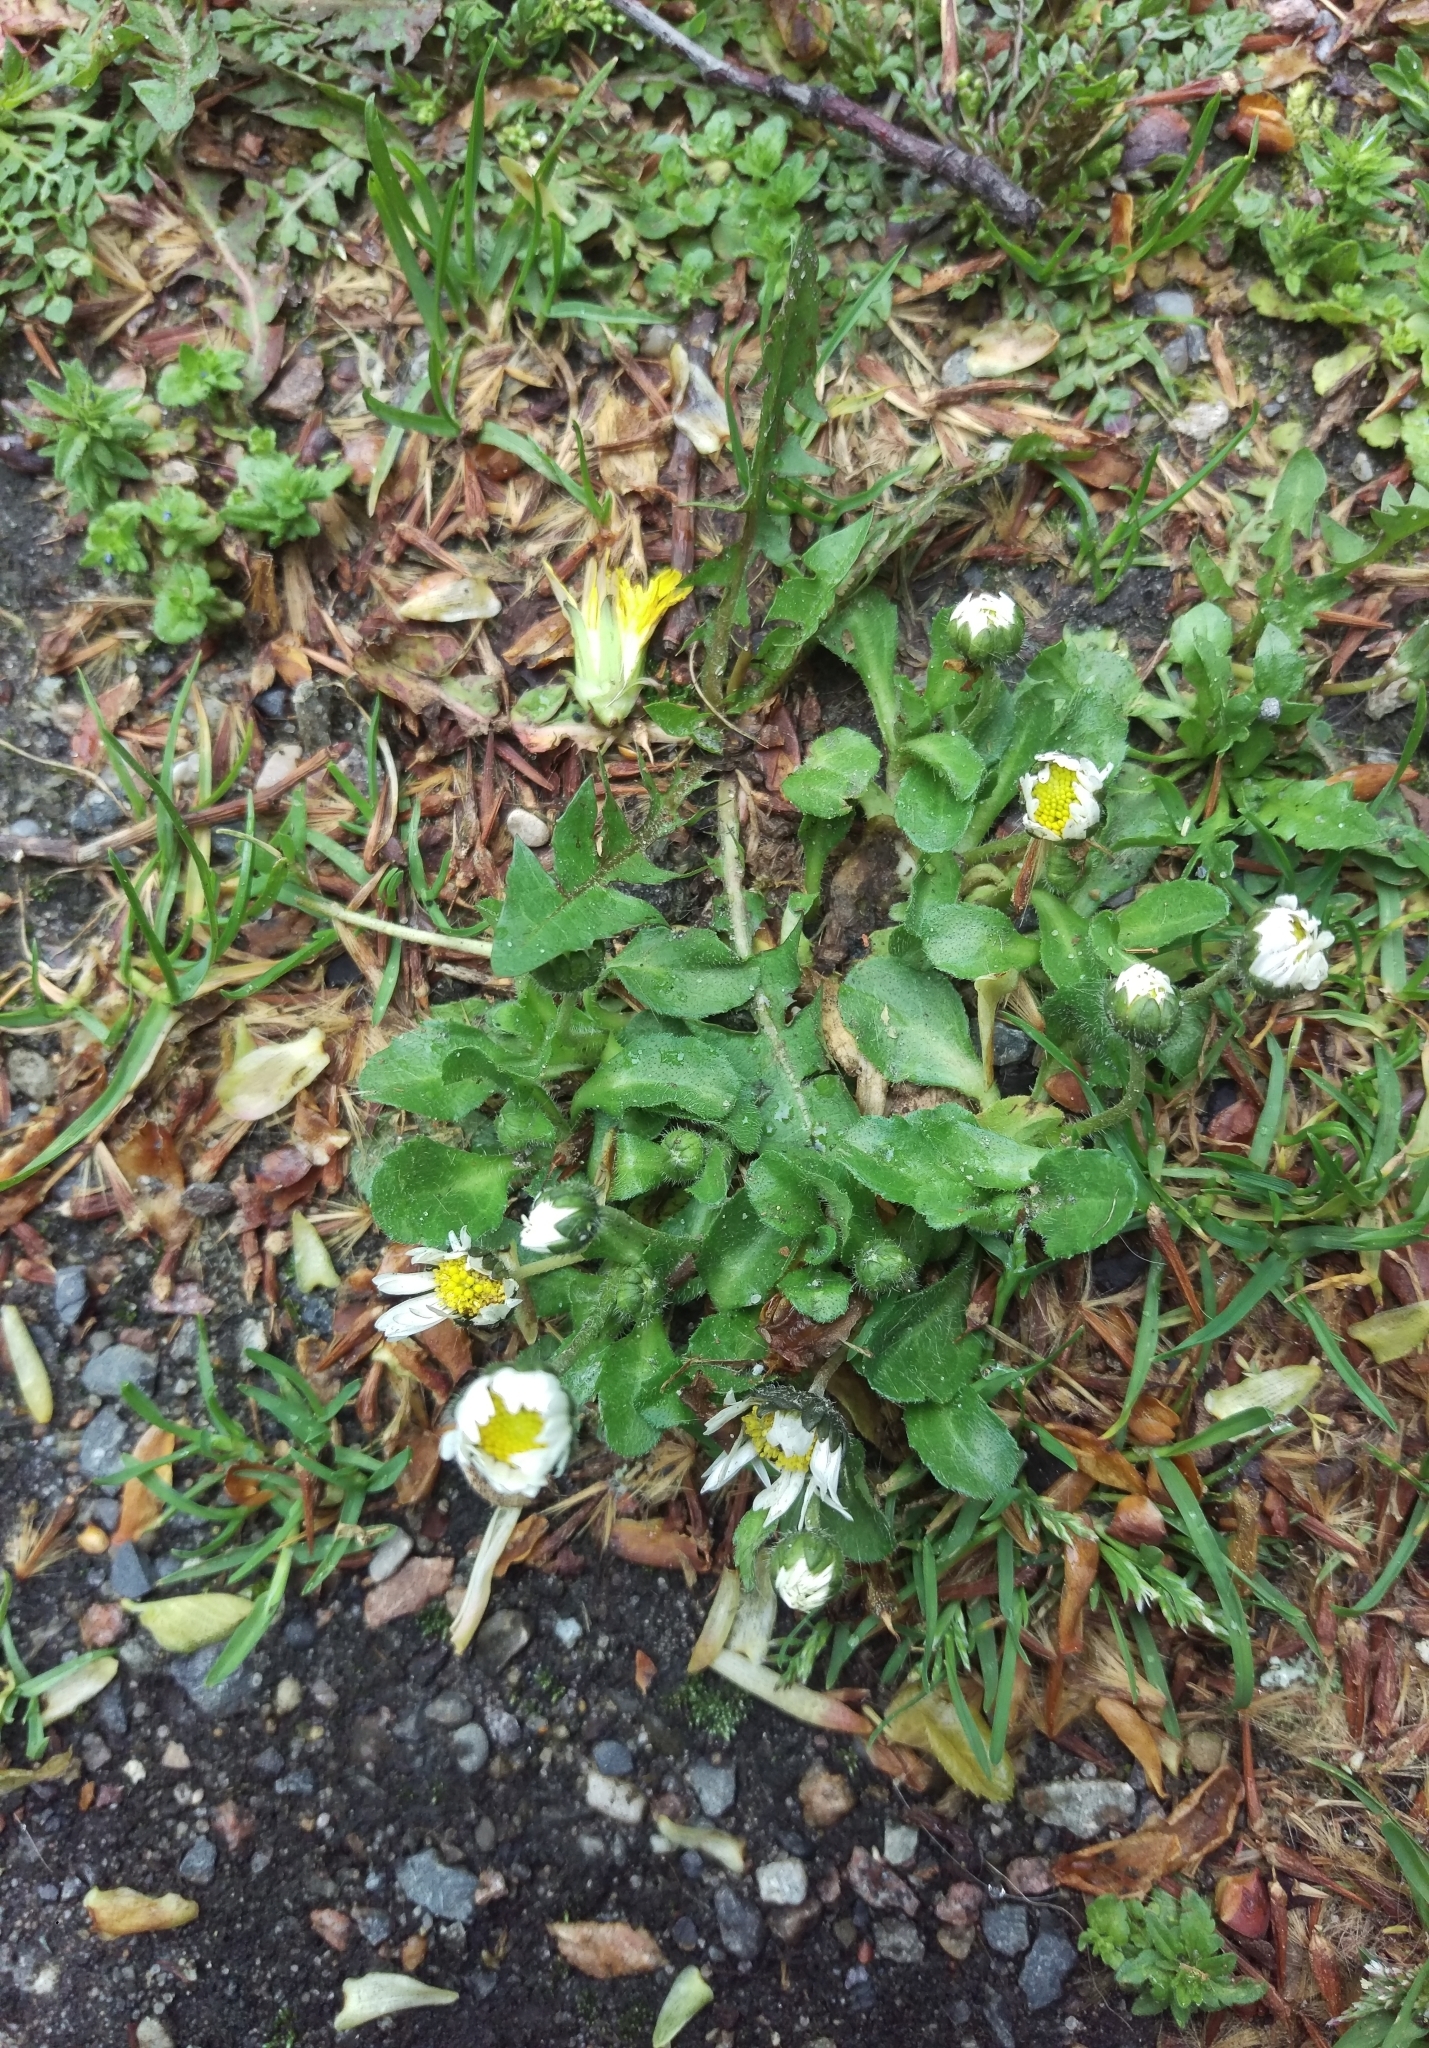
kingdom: Plantae
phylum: Tracheophyta
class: Magnoliopsida
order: Asterales
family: Asteraceae
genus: Bellis
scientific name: Bellis perennis
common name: Lawndaisy
